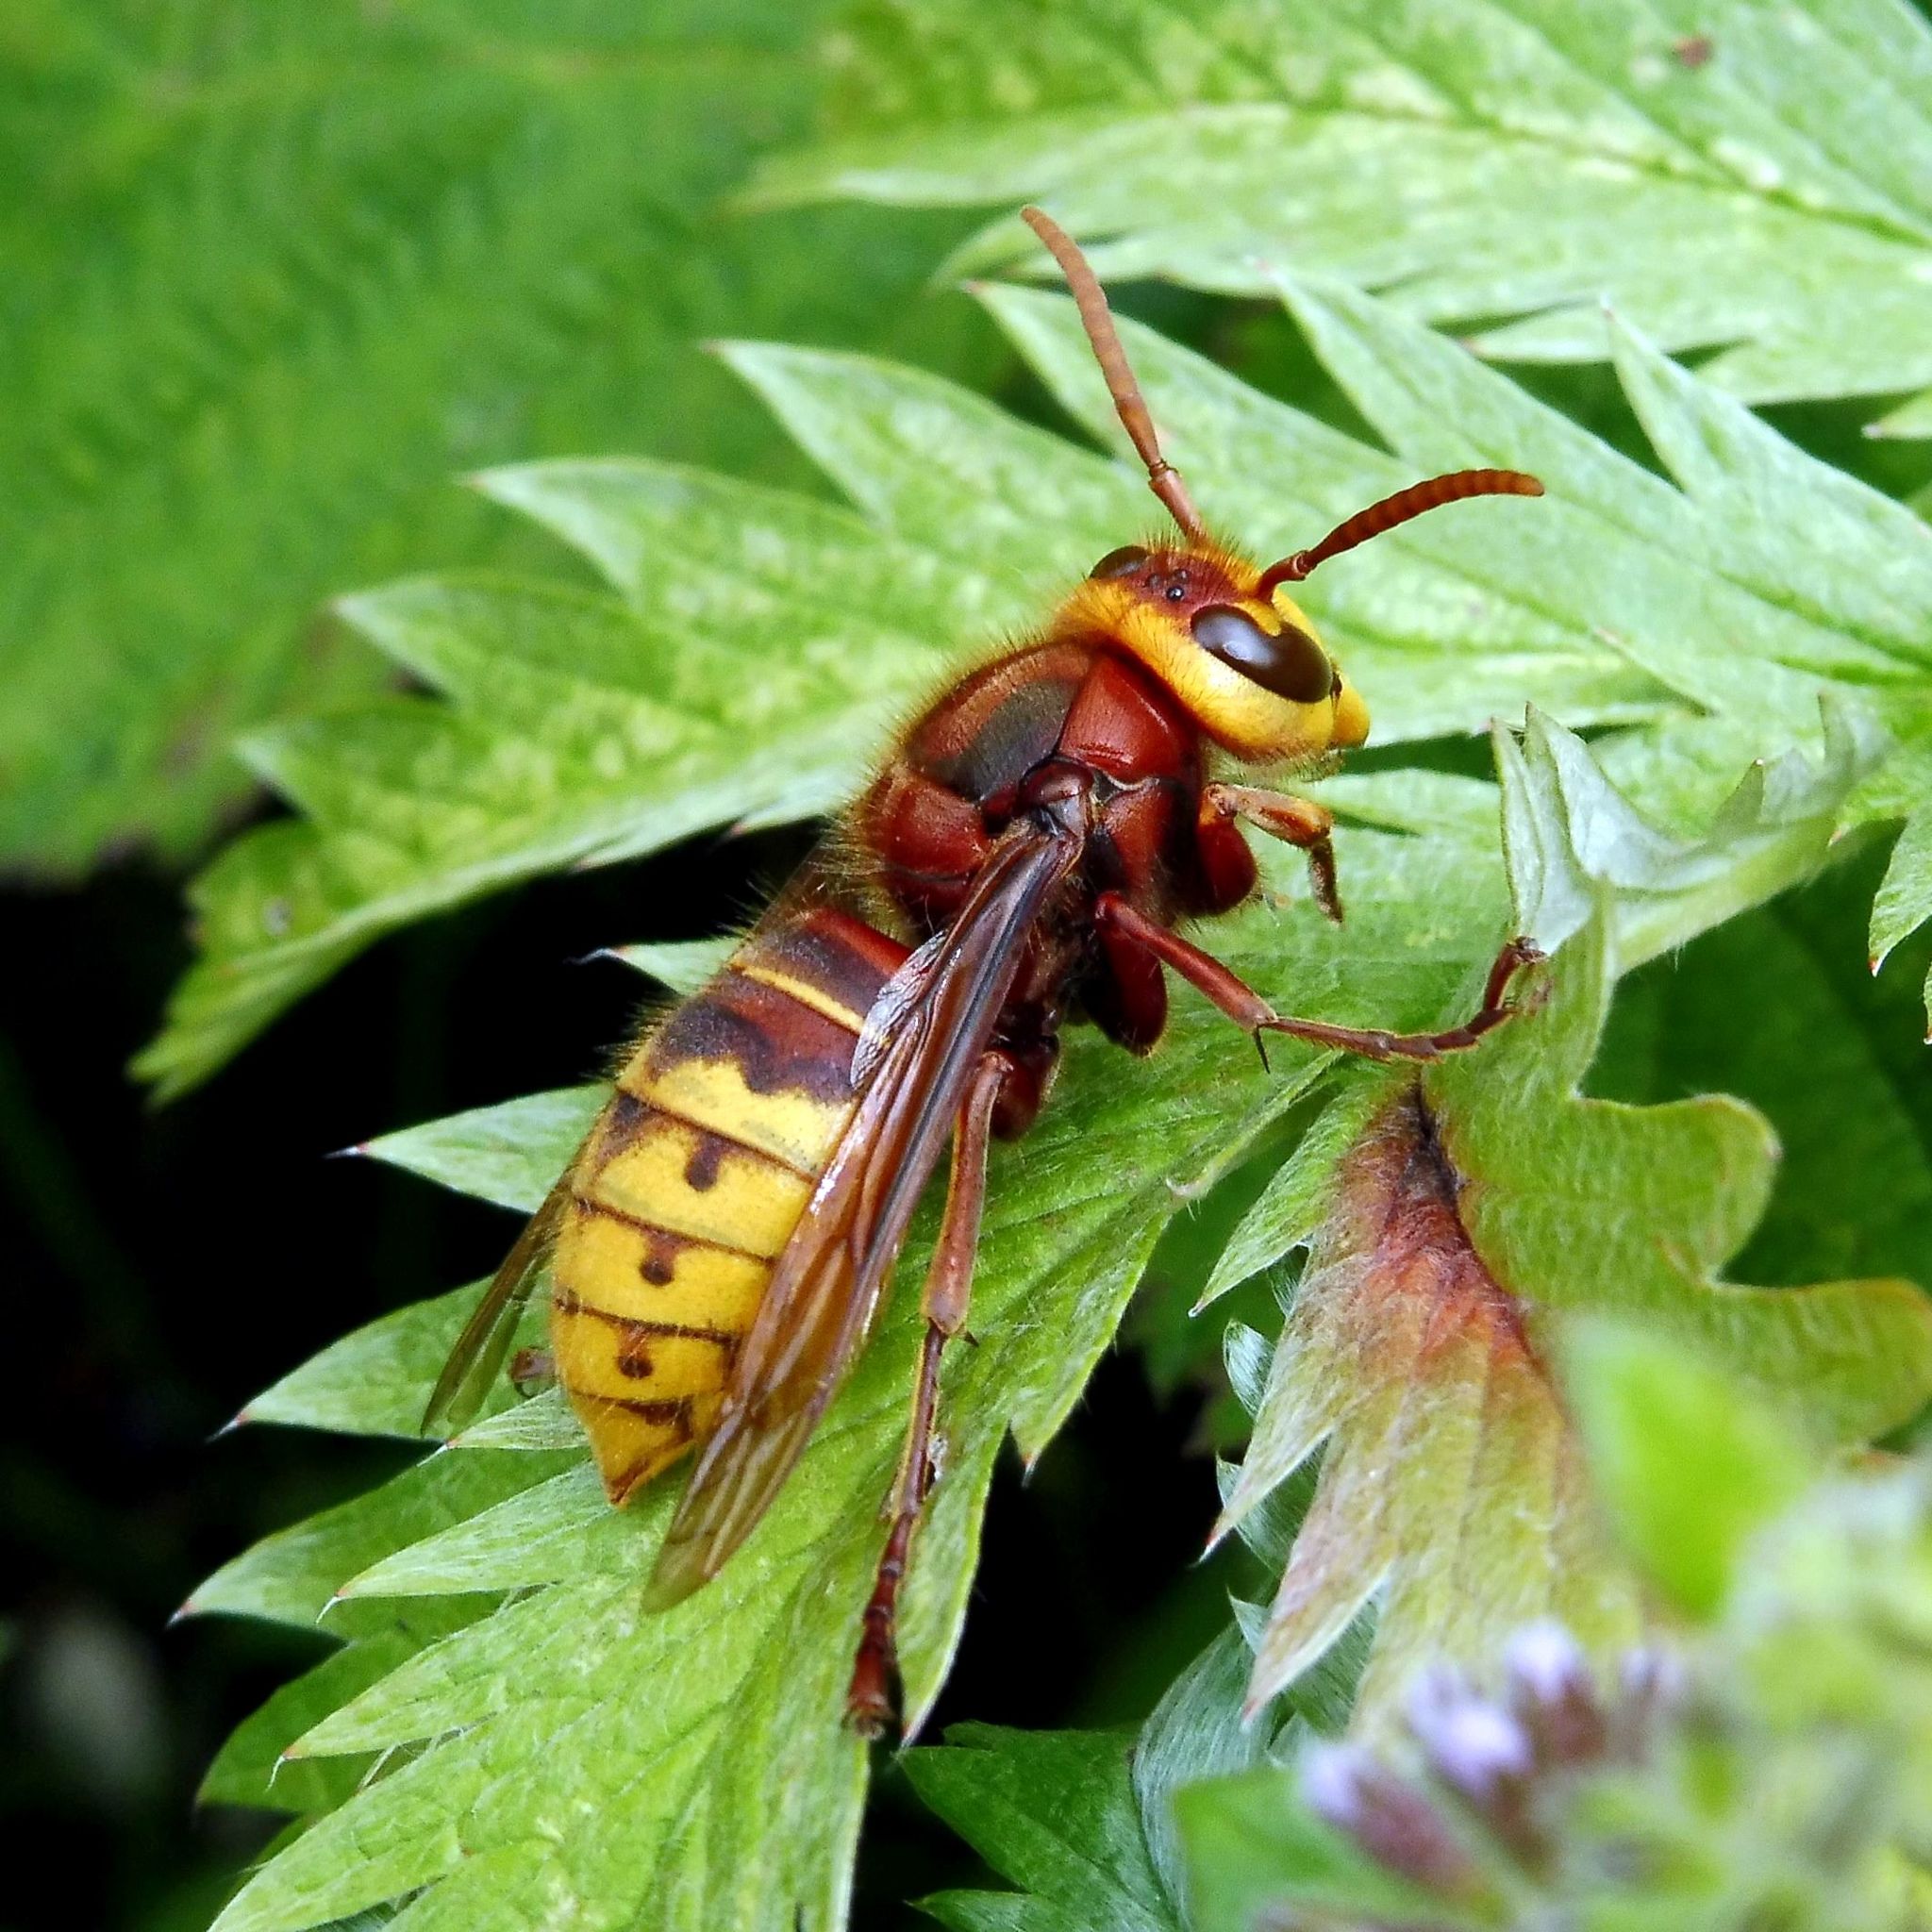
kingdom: Animalia
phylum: Arthropoda
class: Insecta
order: Hymenoptera
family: Vespidae
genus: Vespa
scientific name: Vespa crabro
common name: Hornet
